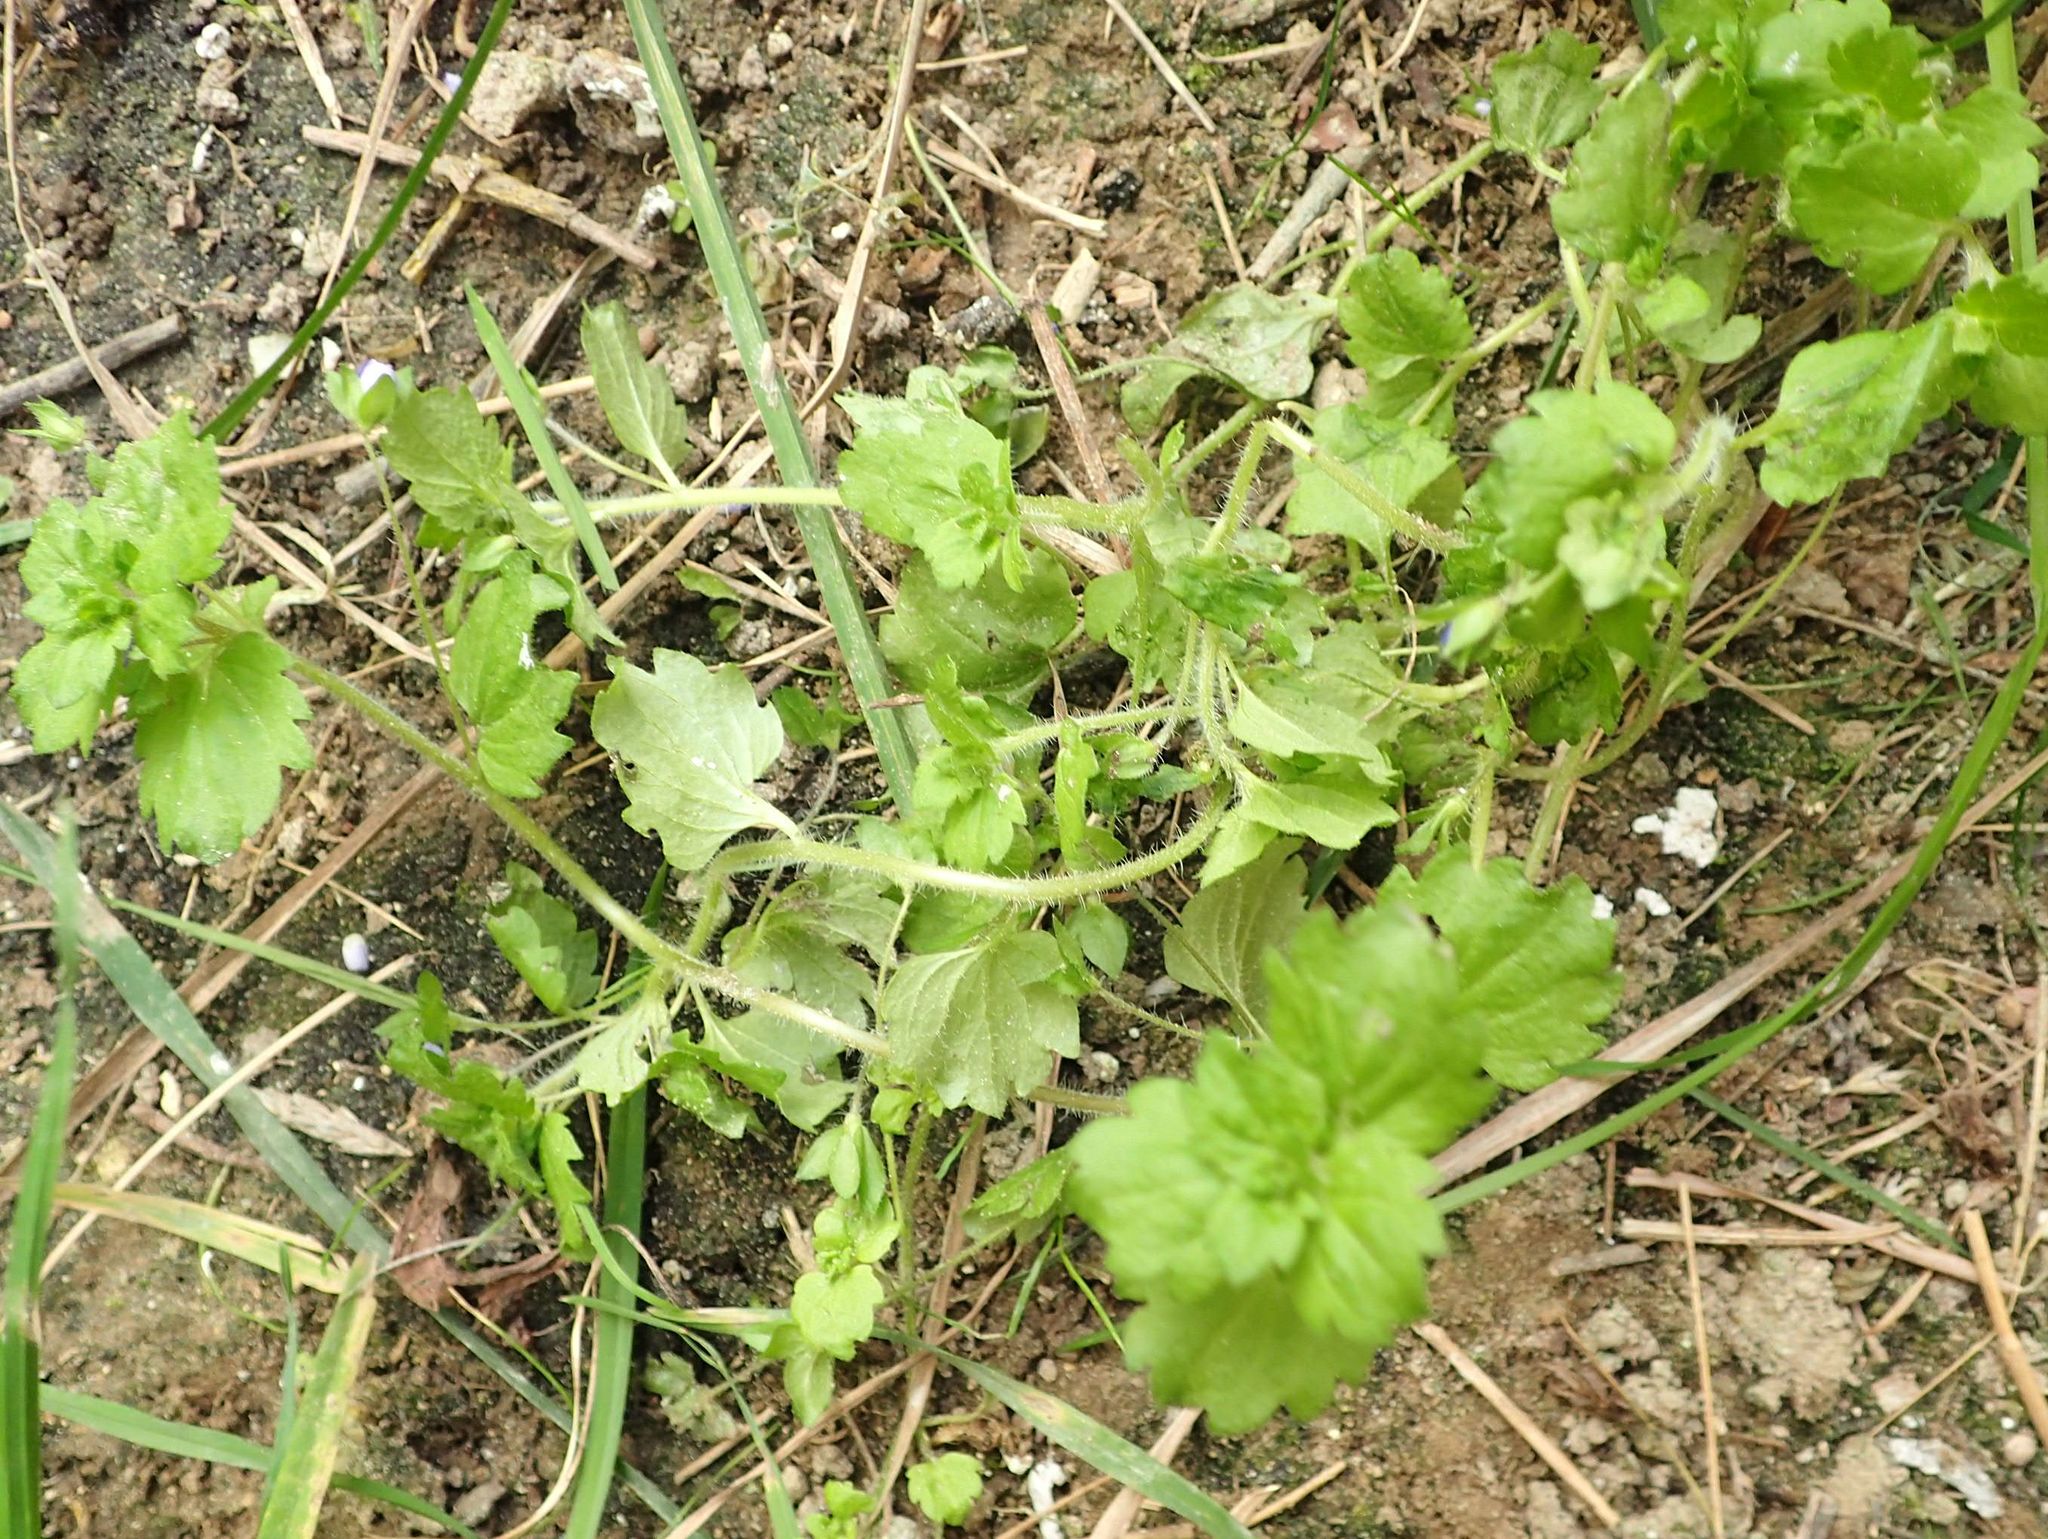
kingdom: Plantae
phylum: Tracheophyta
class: Magnoliopsida
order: Lamiales
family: Plantaginaceae
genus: Veronica
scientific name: Veronica persica
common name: Common field-speedwell
